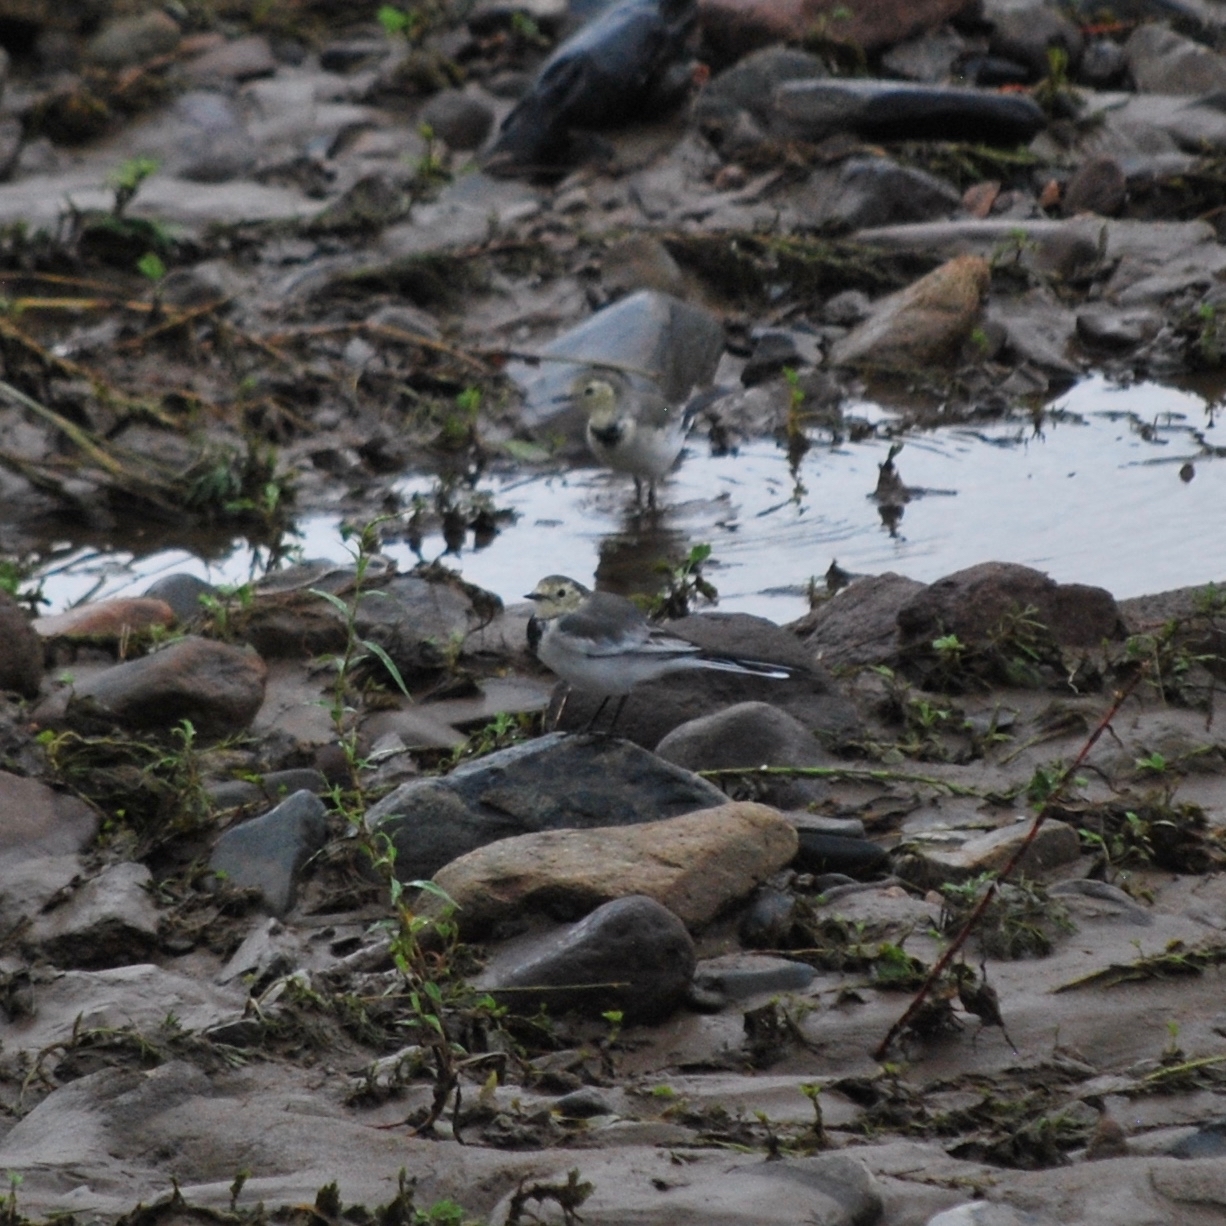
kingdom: Animalia
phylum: Chordata
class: Aves
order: Passeriformes
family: Motacillidae
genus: Motacilla
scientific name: Motacilla alba
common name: White wagtail
